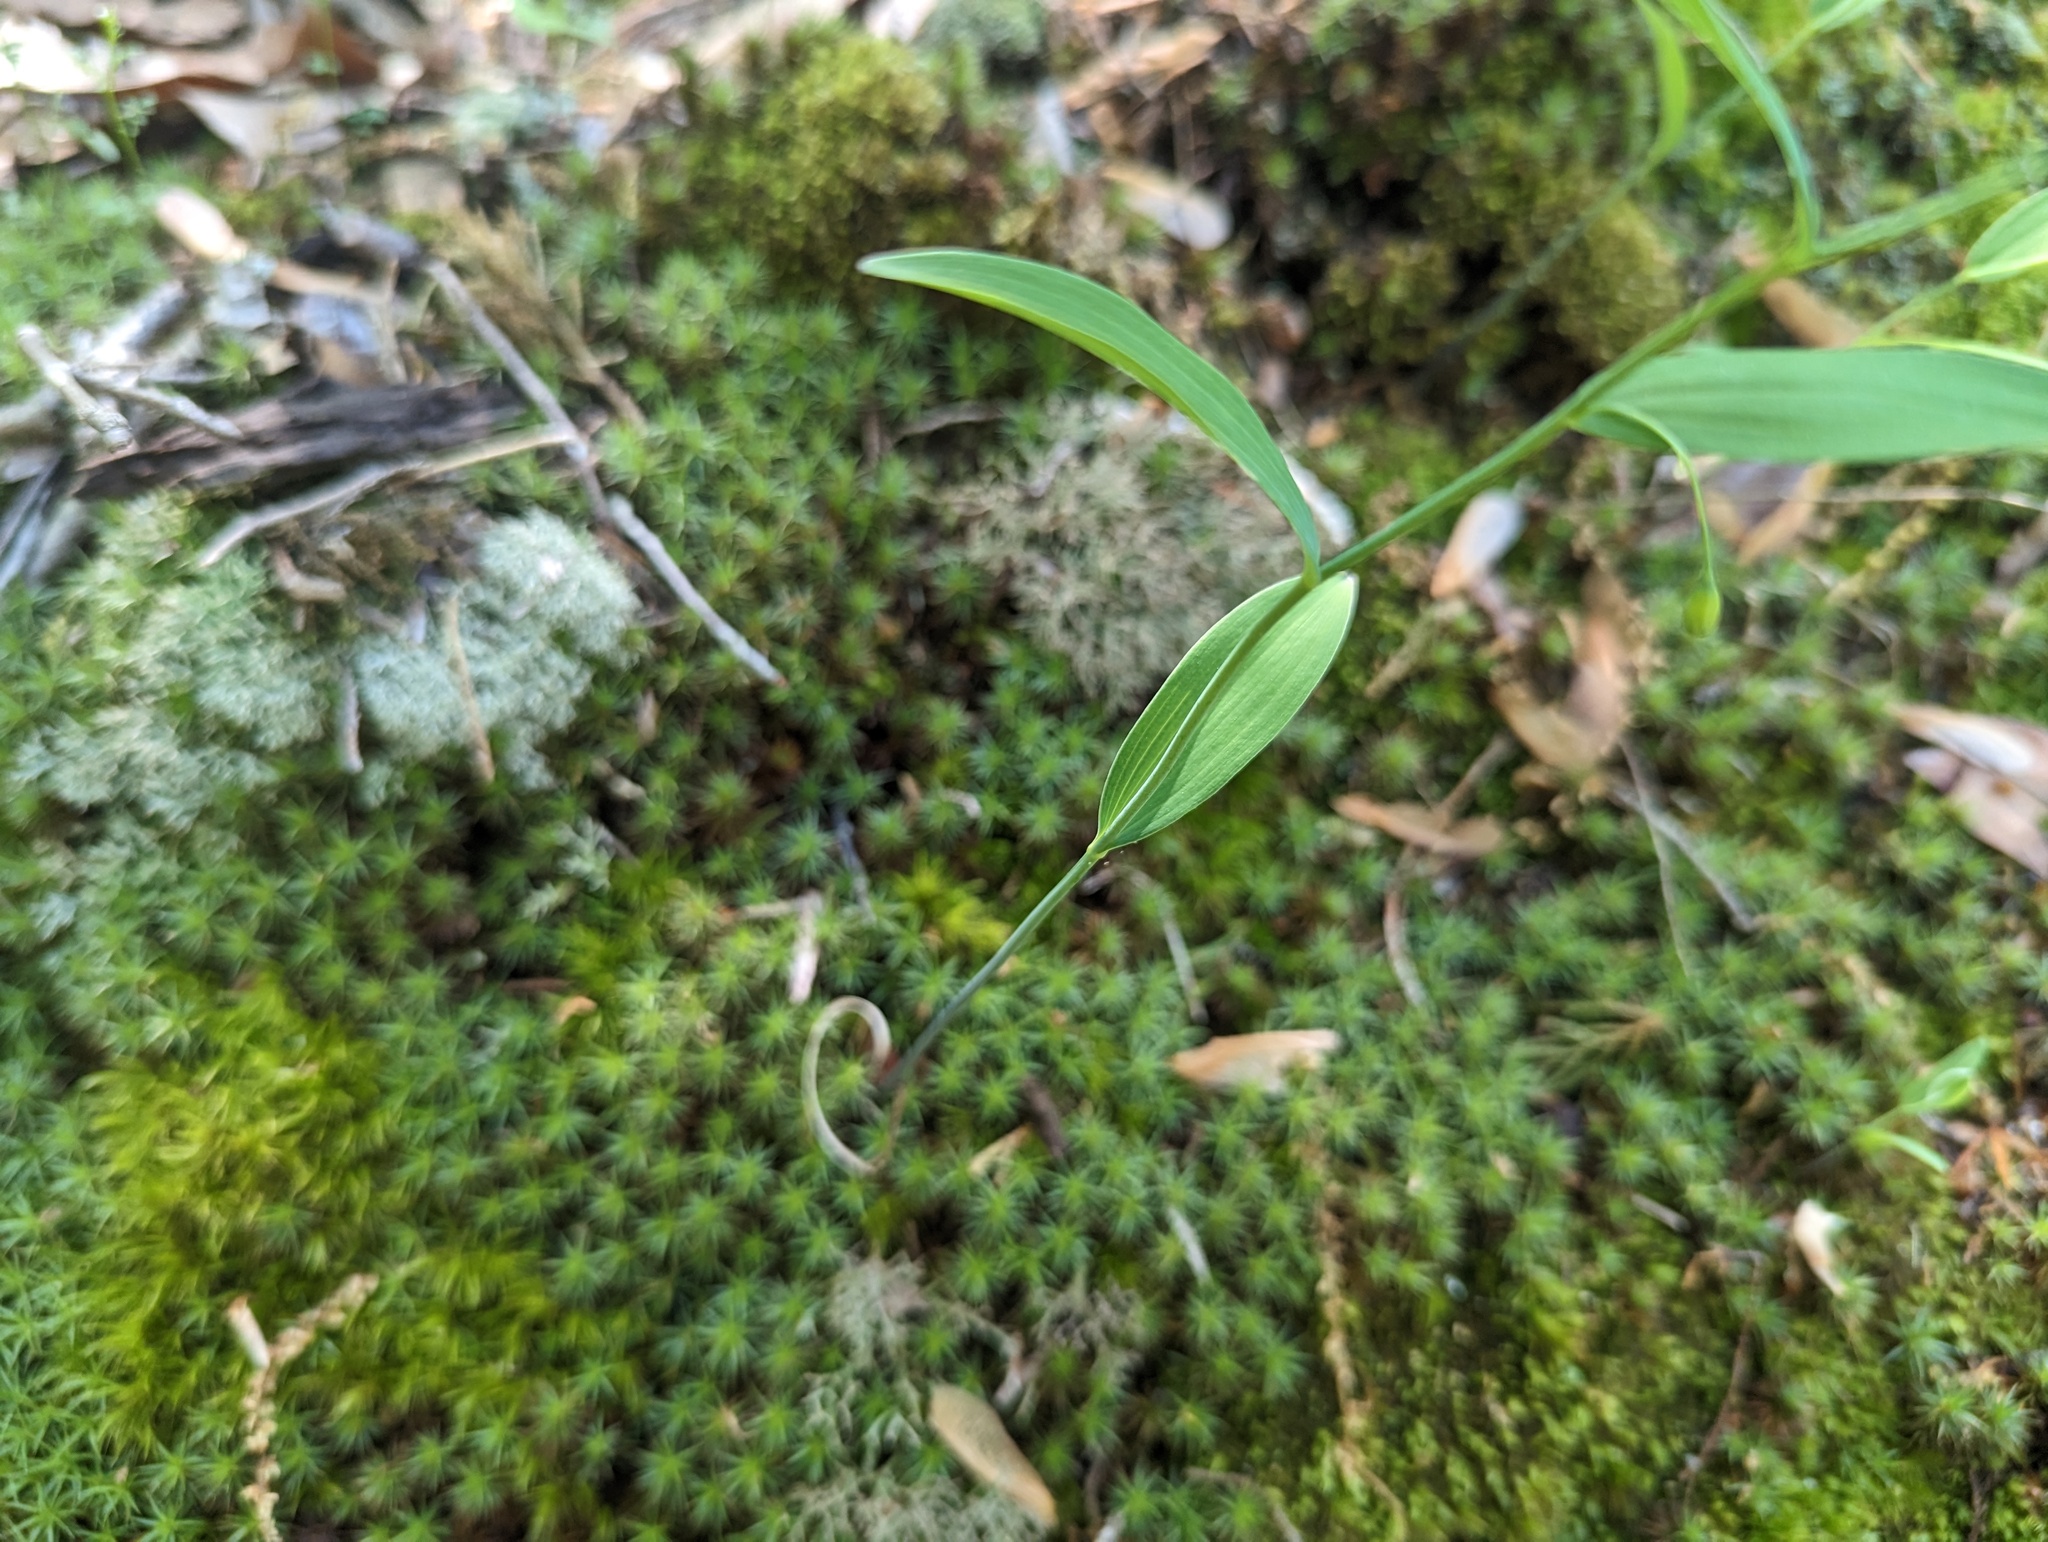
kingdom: Plantae
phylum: Tracheophyta
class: Liliopsida
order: Asparagales
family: Asparagaceae
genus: Polygonatum
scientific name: Polygonatum biflorum
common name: American solomon's-seal
